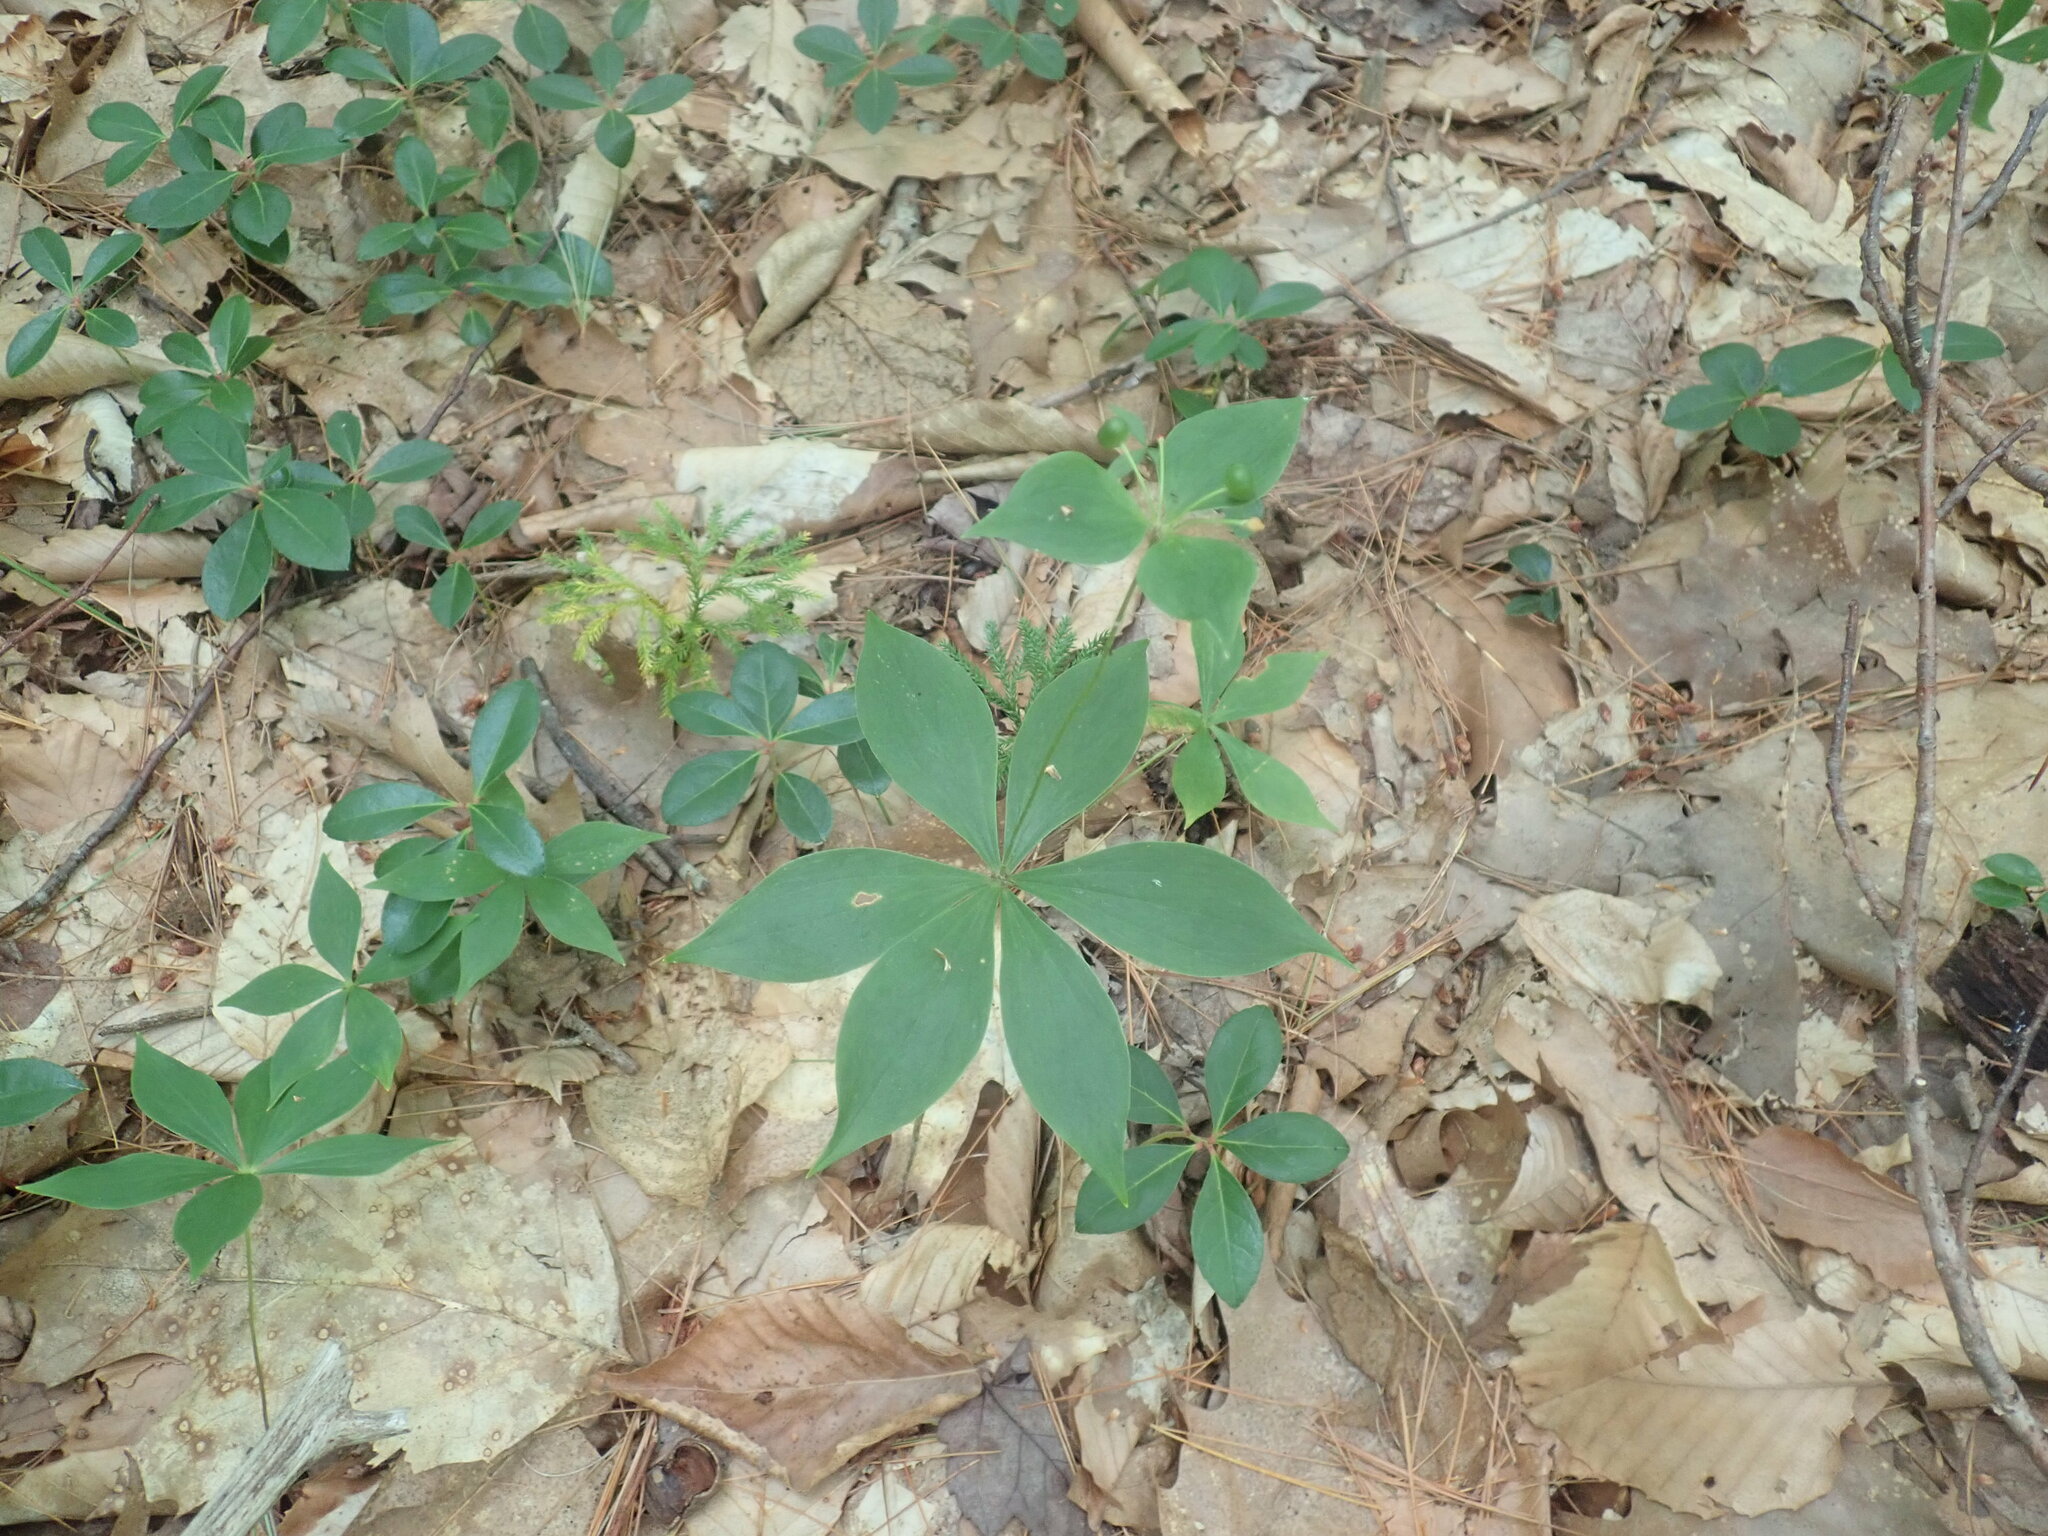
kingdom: Plantae
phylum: Tracheophyta
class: Liliopsida
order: Liliales
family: Liliaceae
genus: Medeola
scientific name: Medeola virginiana
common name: Indian cucumber-root
